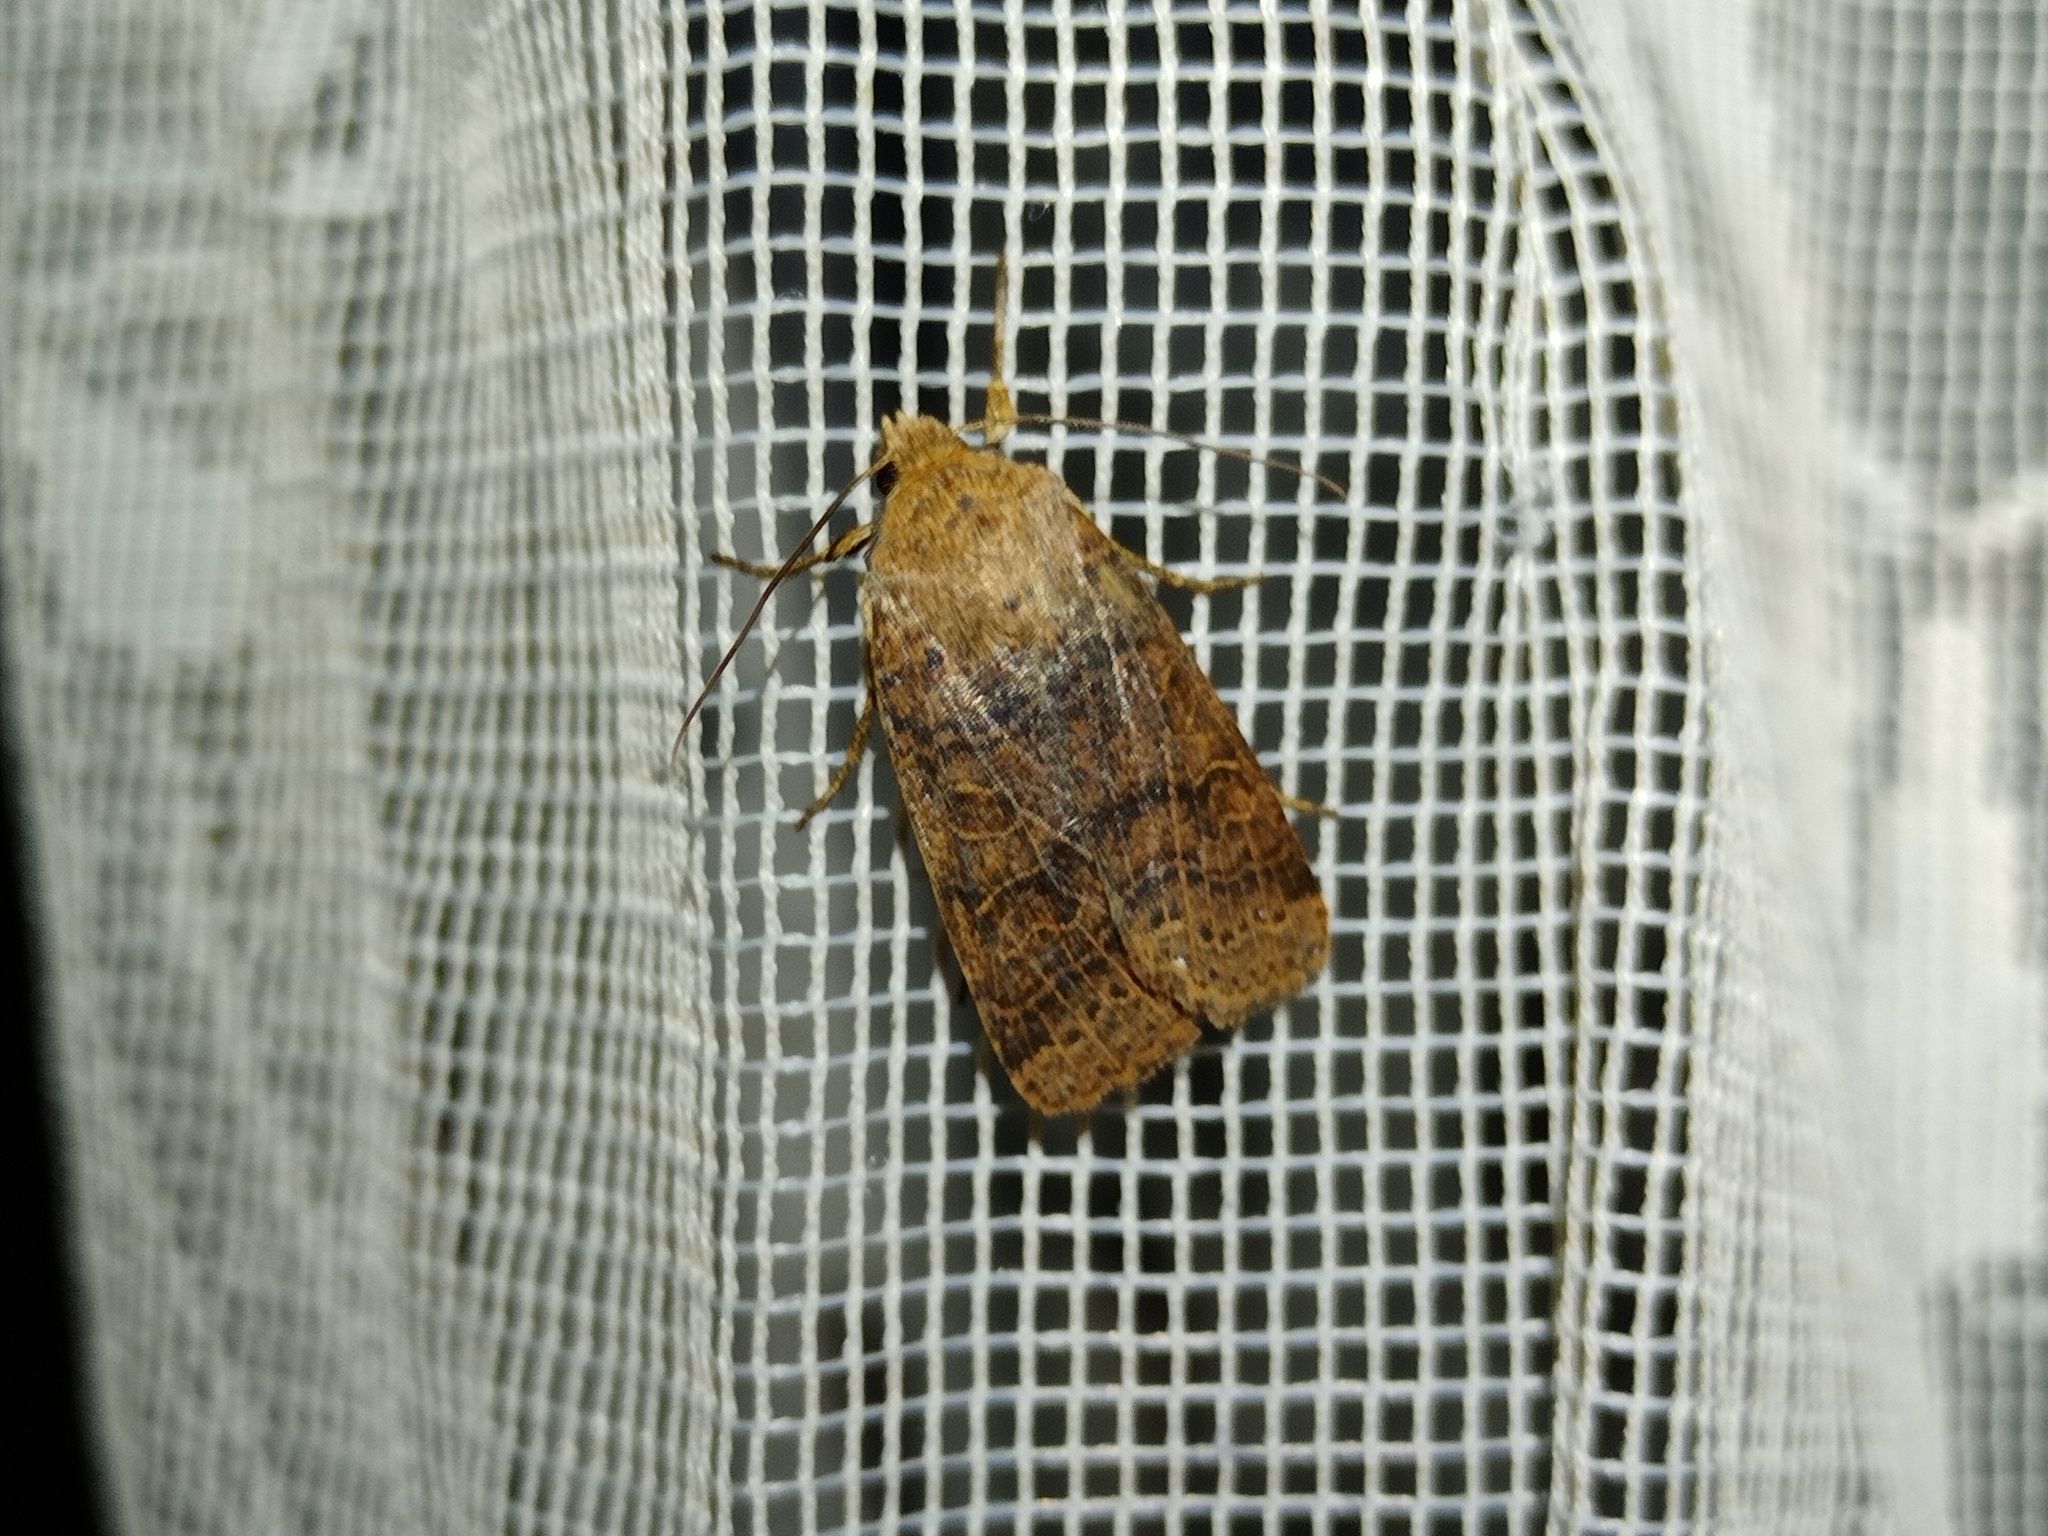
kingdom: Animalia
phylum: Arthropoda
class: Insecta
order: Lepidoptera
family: Noctuidae
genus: Agrochola
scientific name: Agrochola nitida
